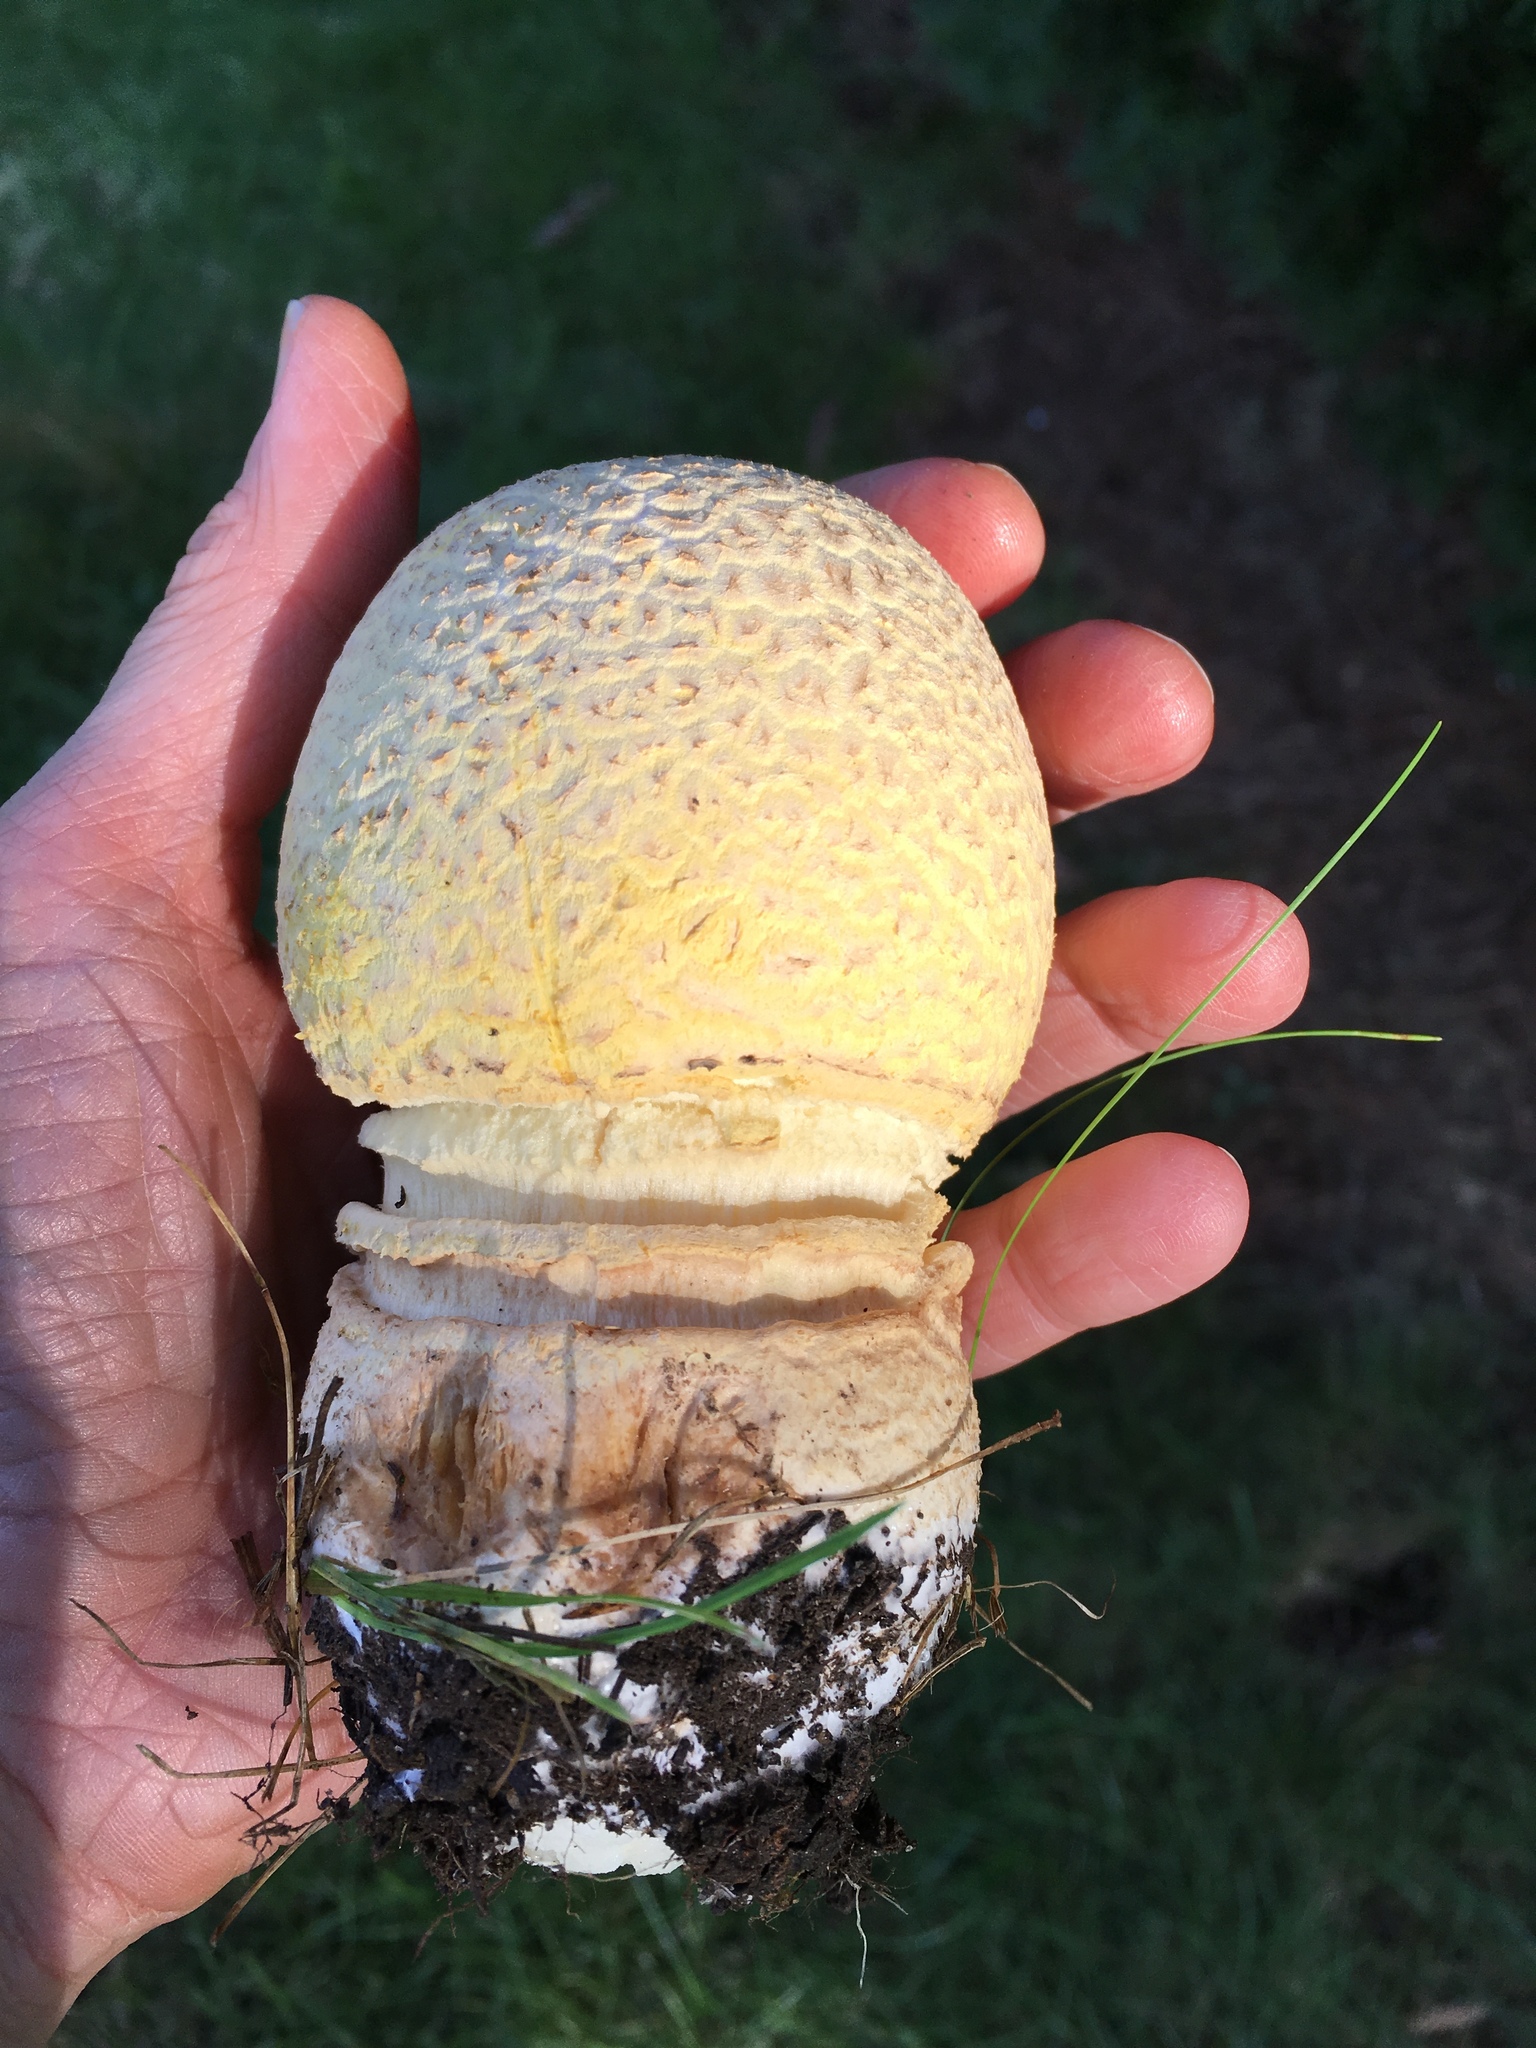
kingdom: Fungi
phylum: Basidiomycota
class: Agaricomycetes
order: Agaricales
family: Amanitaceae
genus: Amanita
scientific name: Amanita muscaria
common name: Fly agaric
